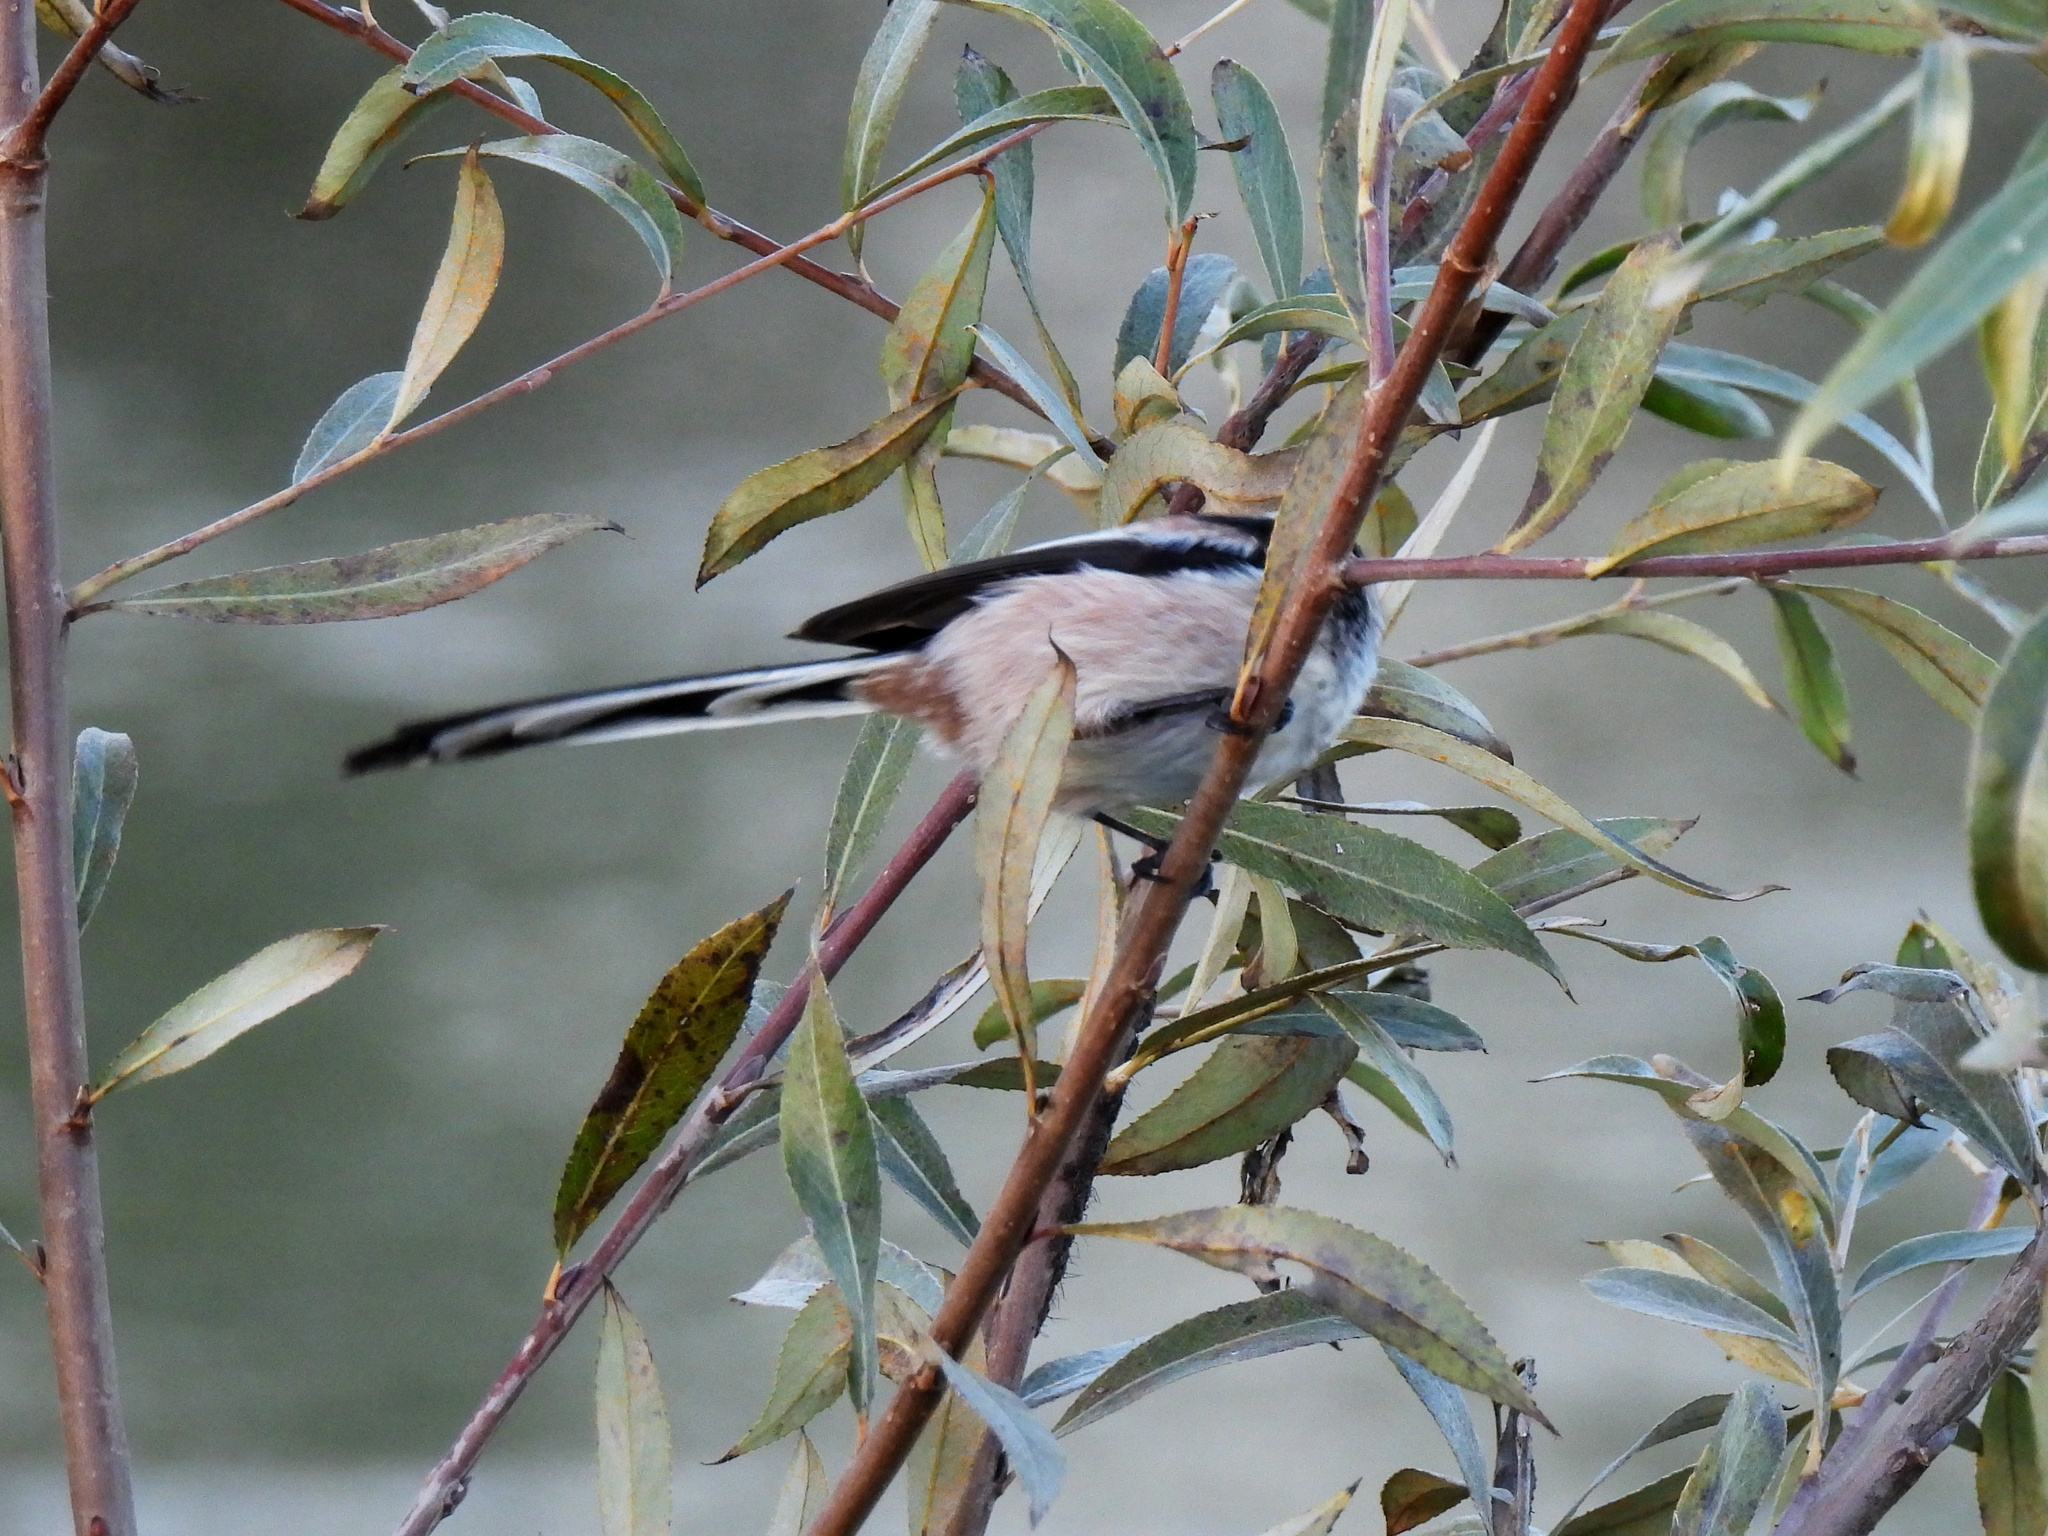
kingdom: Animalia
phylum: Chordata
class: Aves
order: Passeriformes
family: Aegithalidae
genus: Aegithalos
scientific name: Aegithalos caudatus
